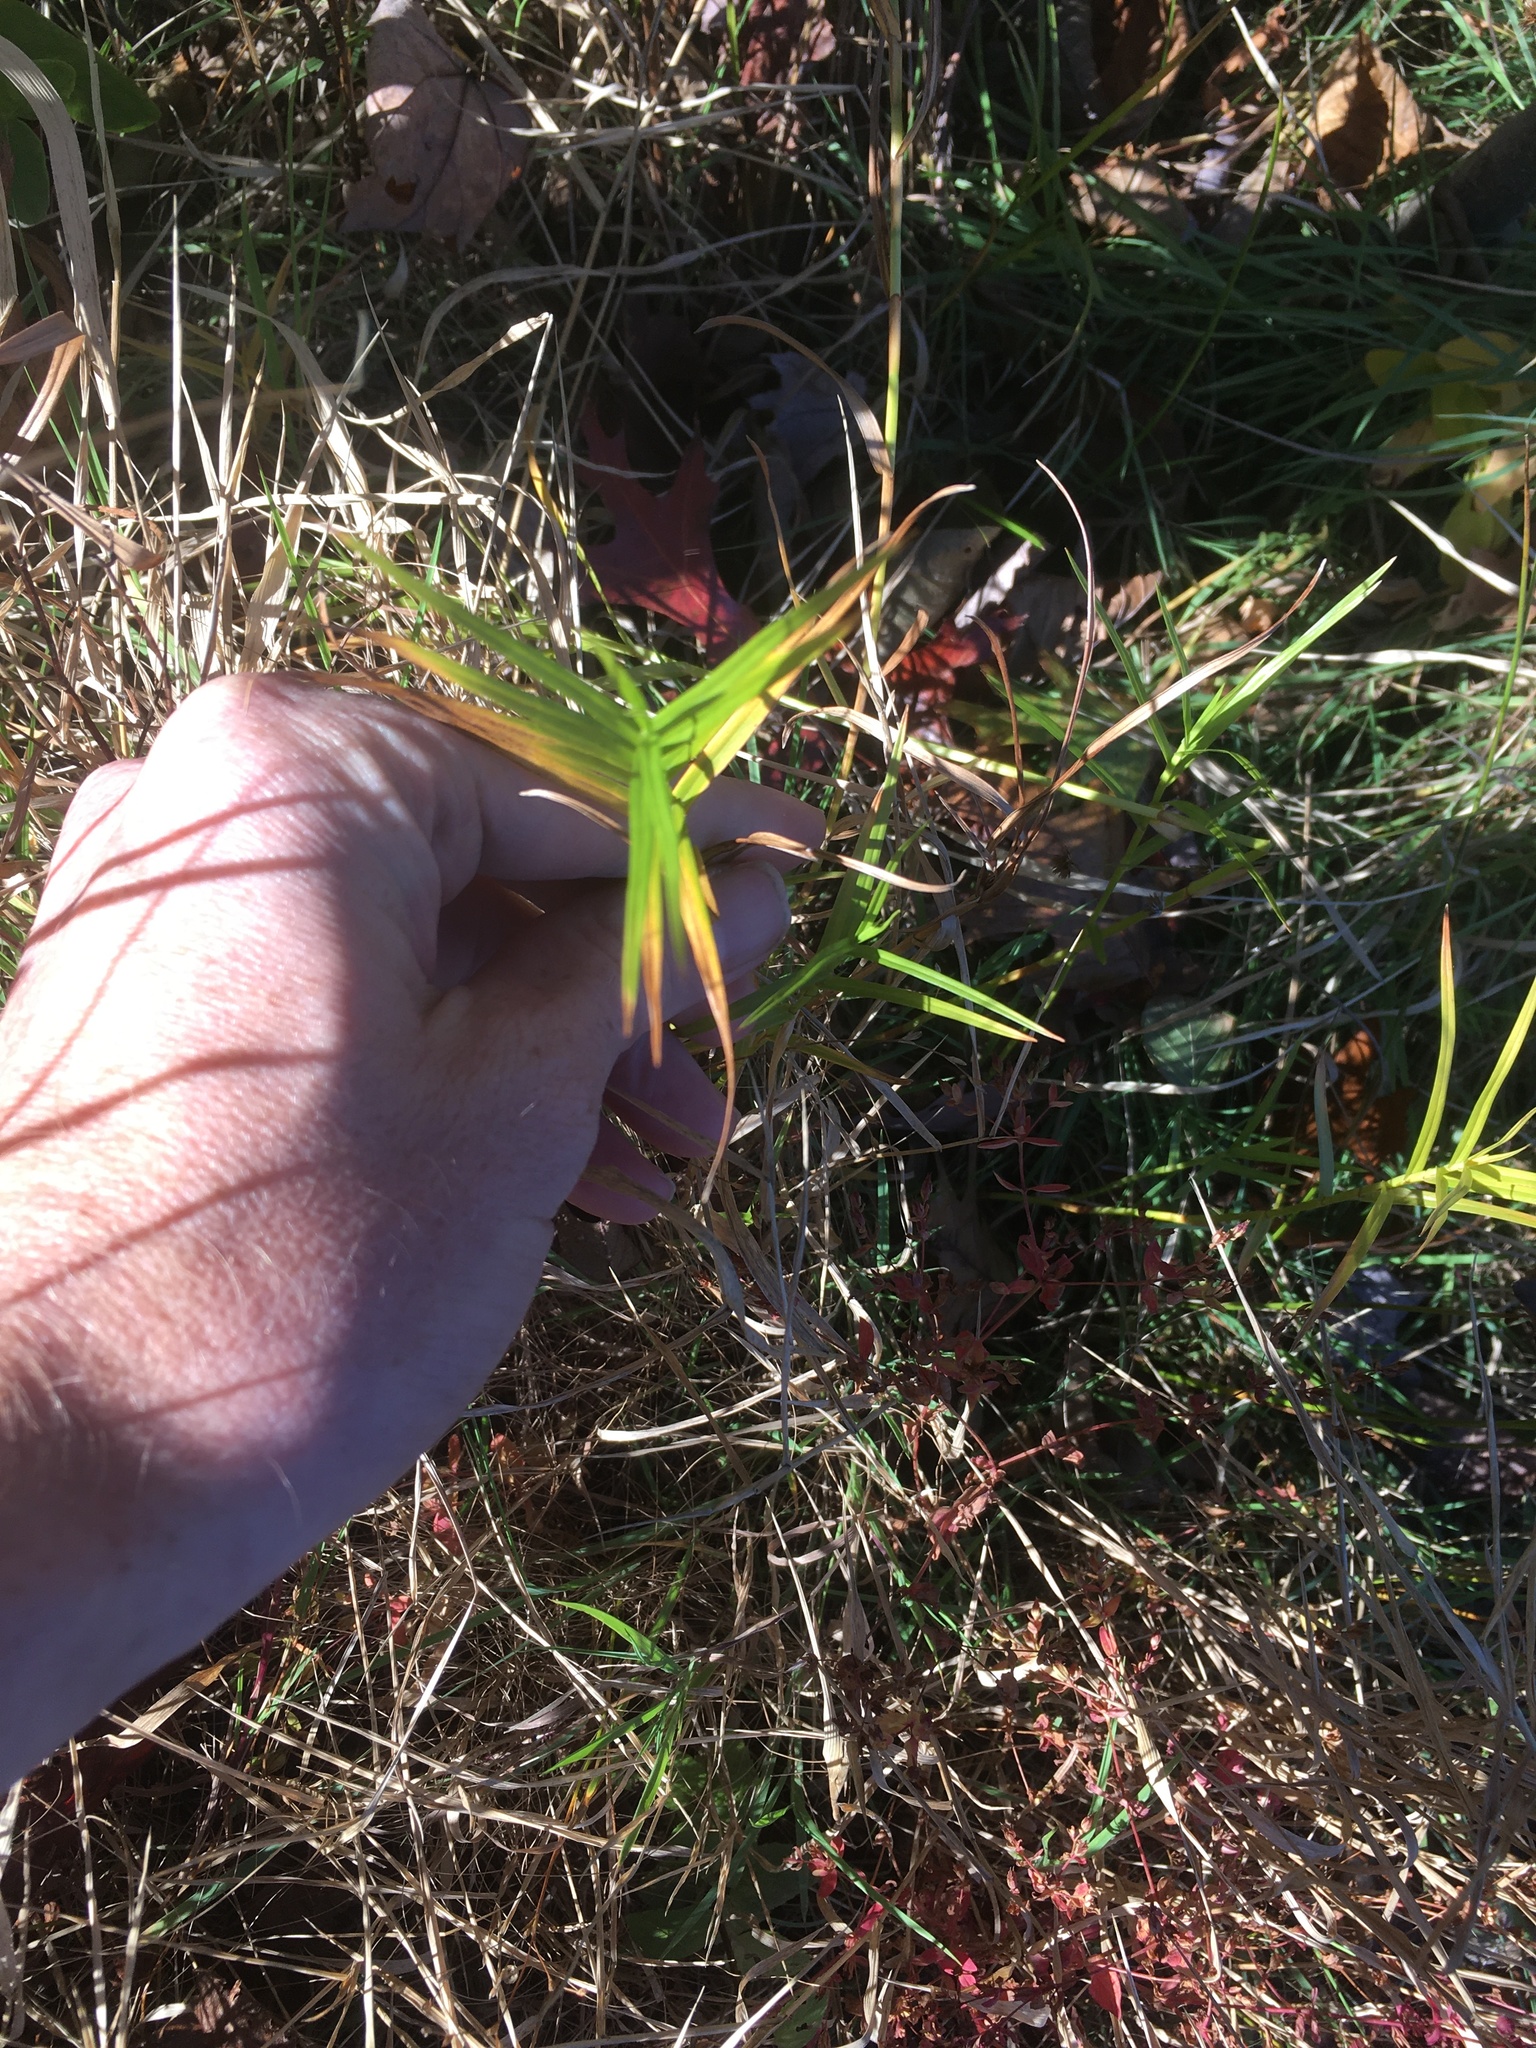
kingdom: Plantae
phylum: Tracheophyta
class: Liliopsida
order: Poales
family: Cyperaceae
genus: Dulichium
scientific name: Dulichium arundinaceum
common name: Three-way sedge
